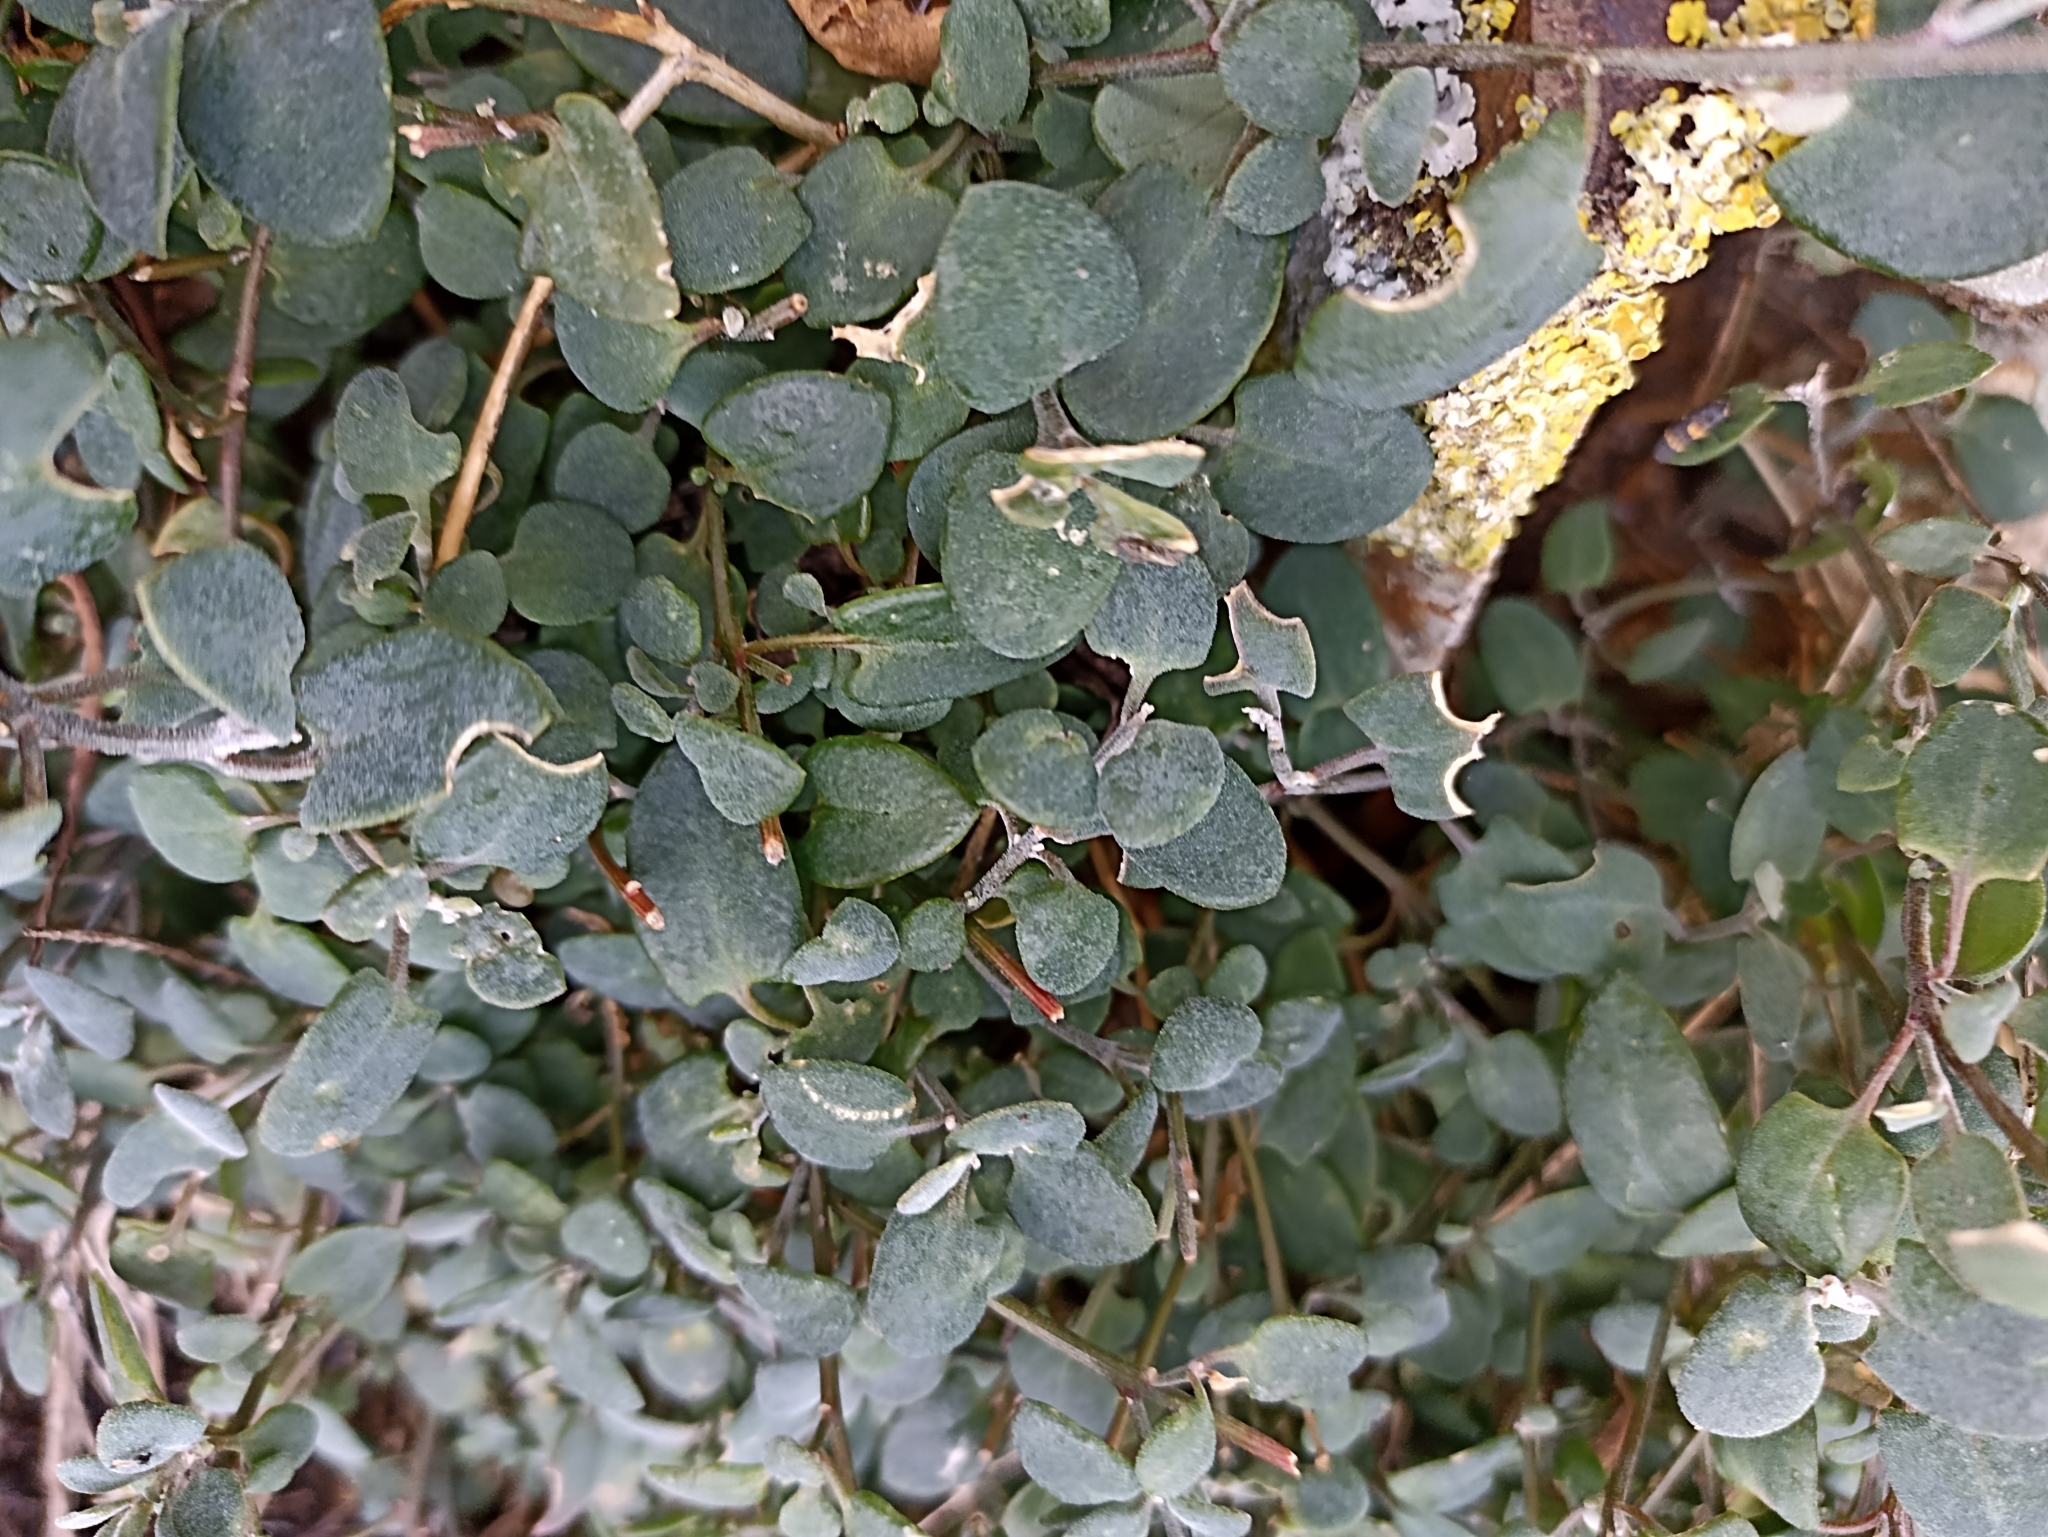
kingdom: Plantae
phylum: Tracheophyta
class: Magnoliopsida
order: Caryophyllales
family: Amaranthaceae
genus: Chenopodium
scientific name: Chenopodium triandrum
